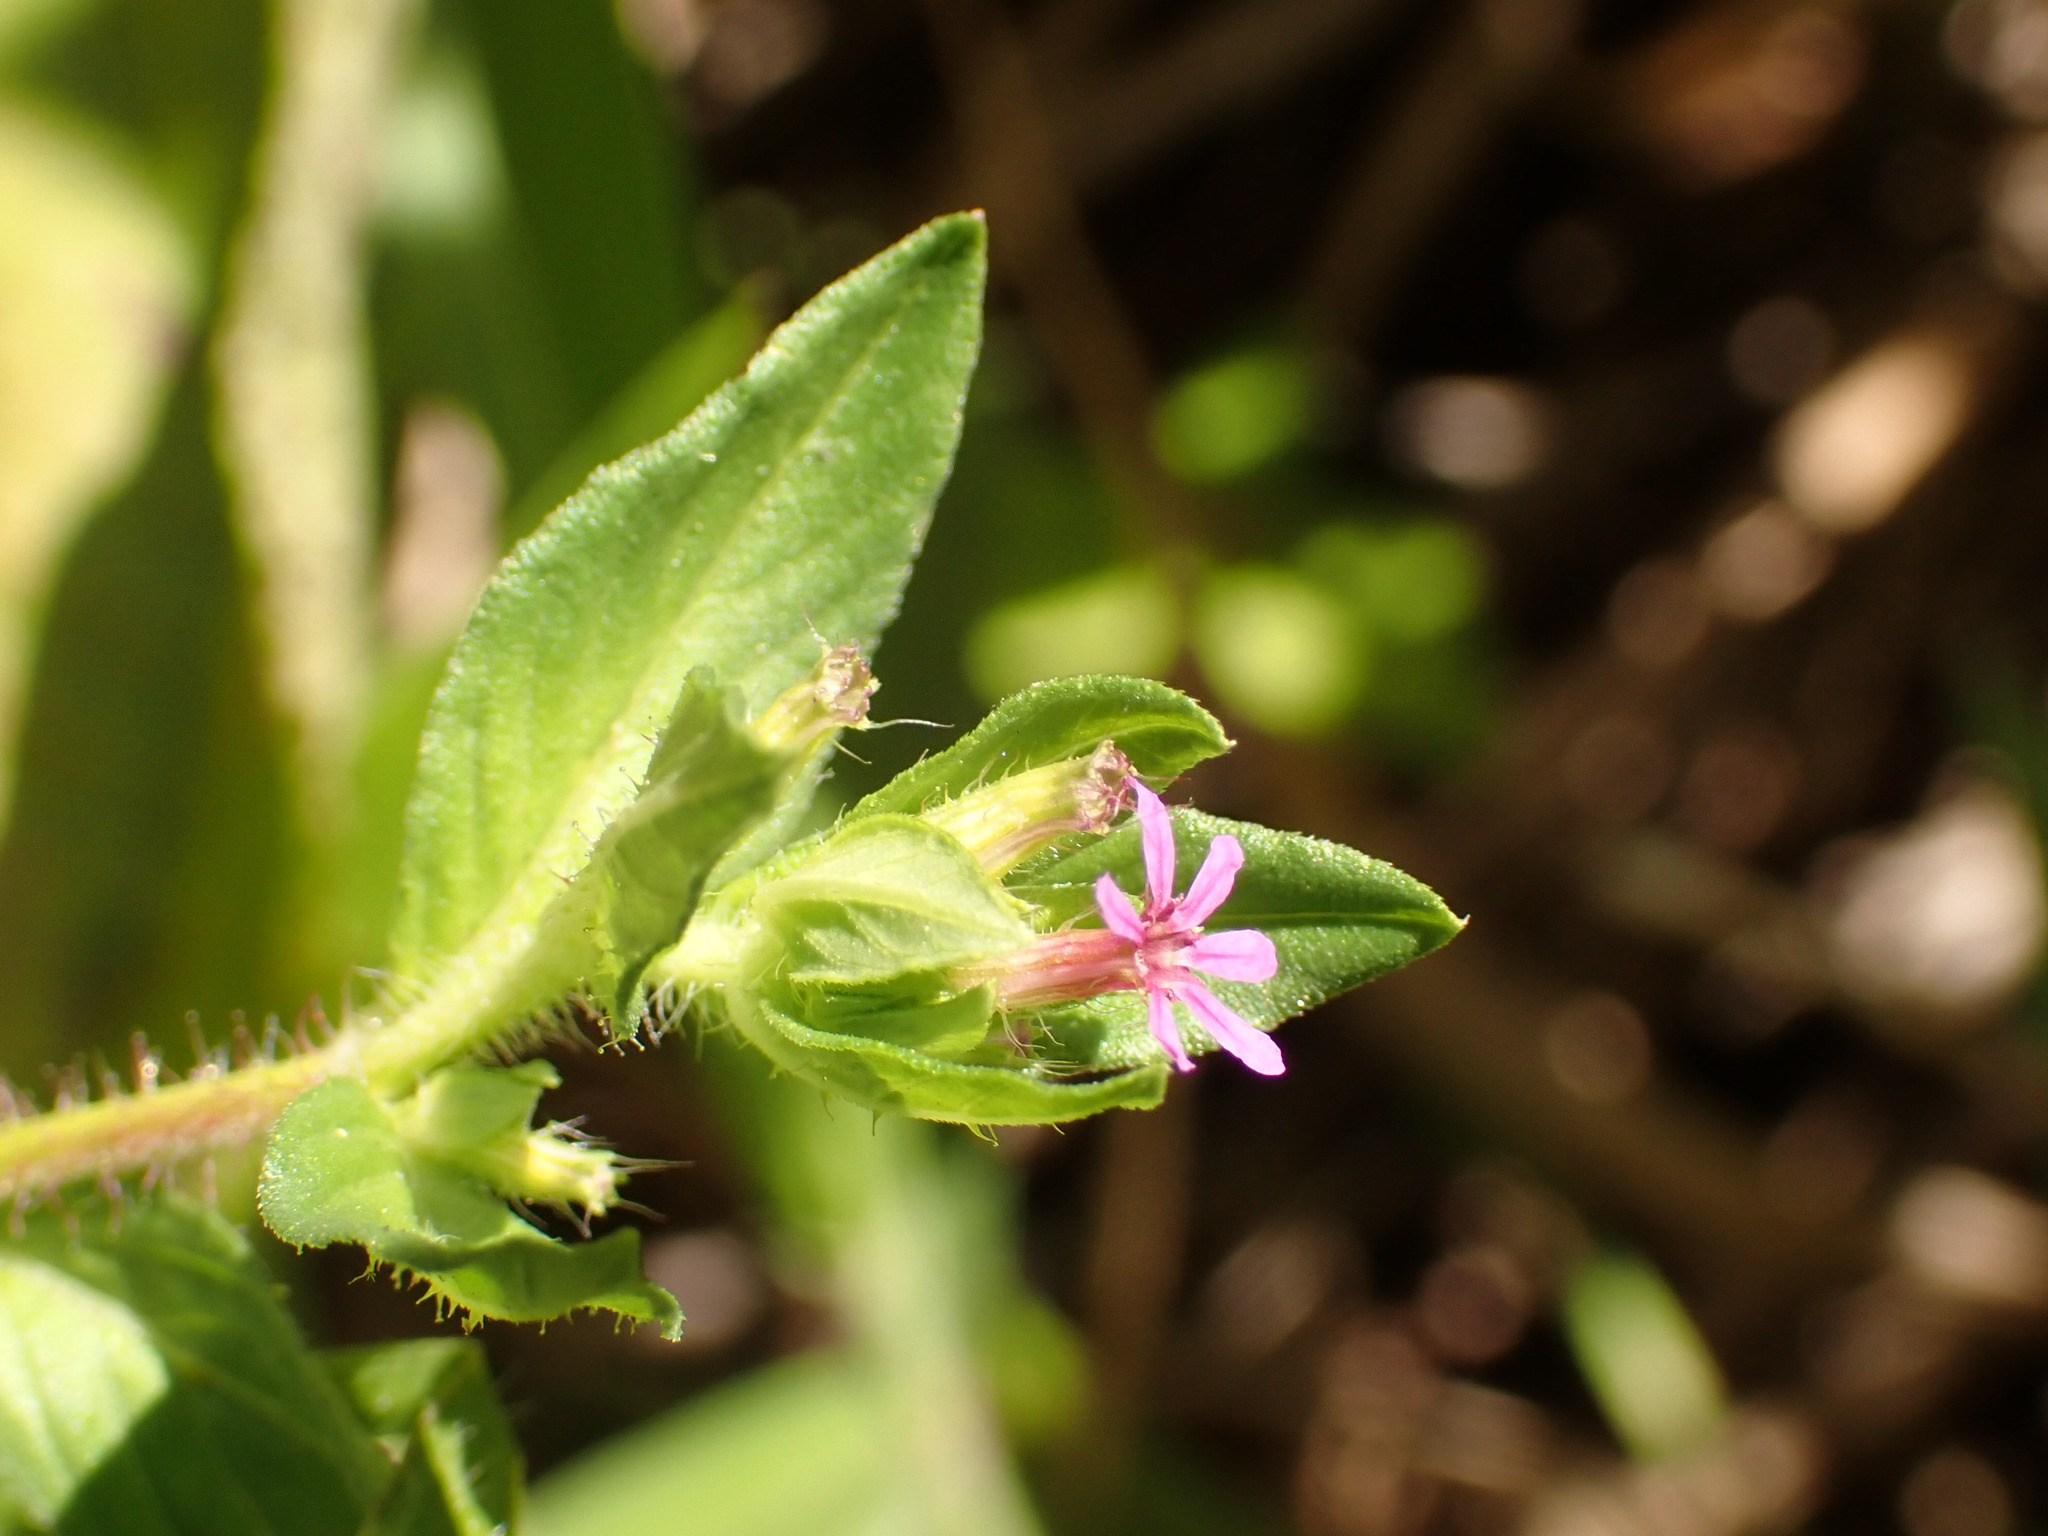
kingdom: Plantae
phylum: Tracheophyta
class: Magnoliopsida
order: Myrtales
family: Lythraceae
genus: Cuphea
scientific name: Cuphea carthagenensis
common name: Colombian waxweed
